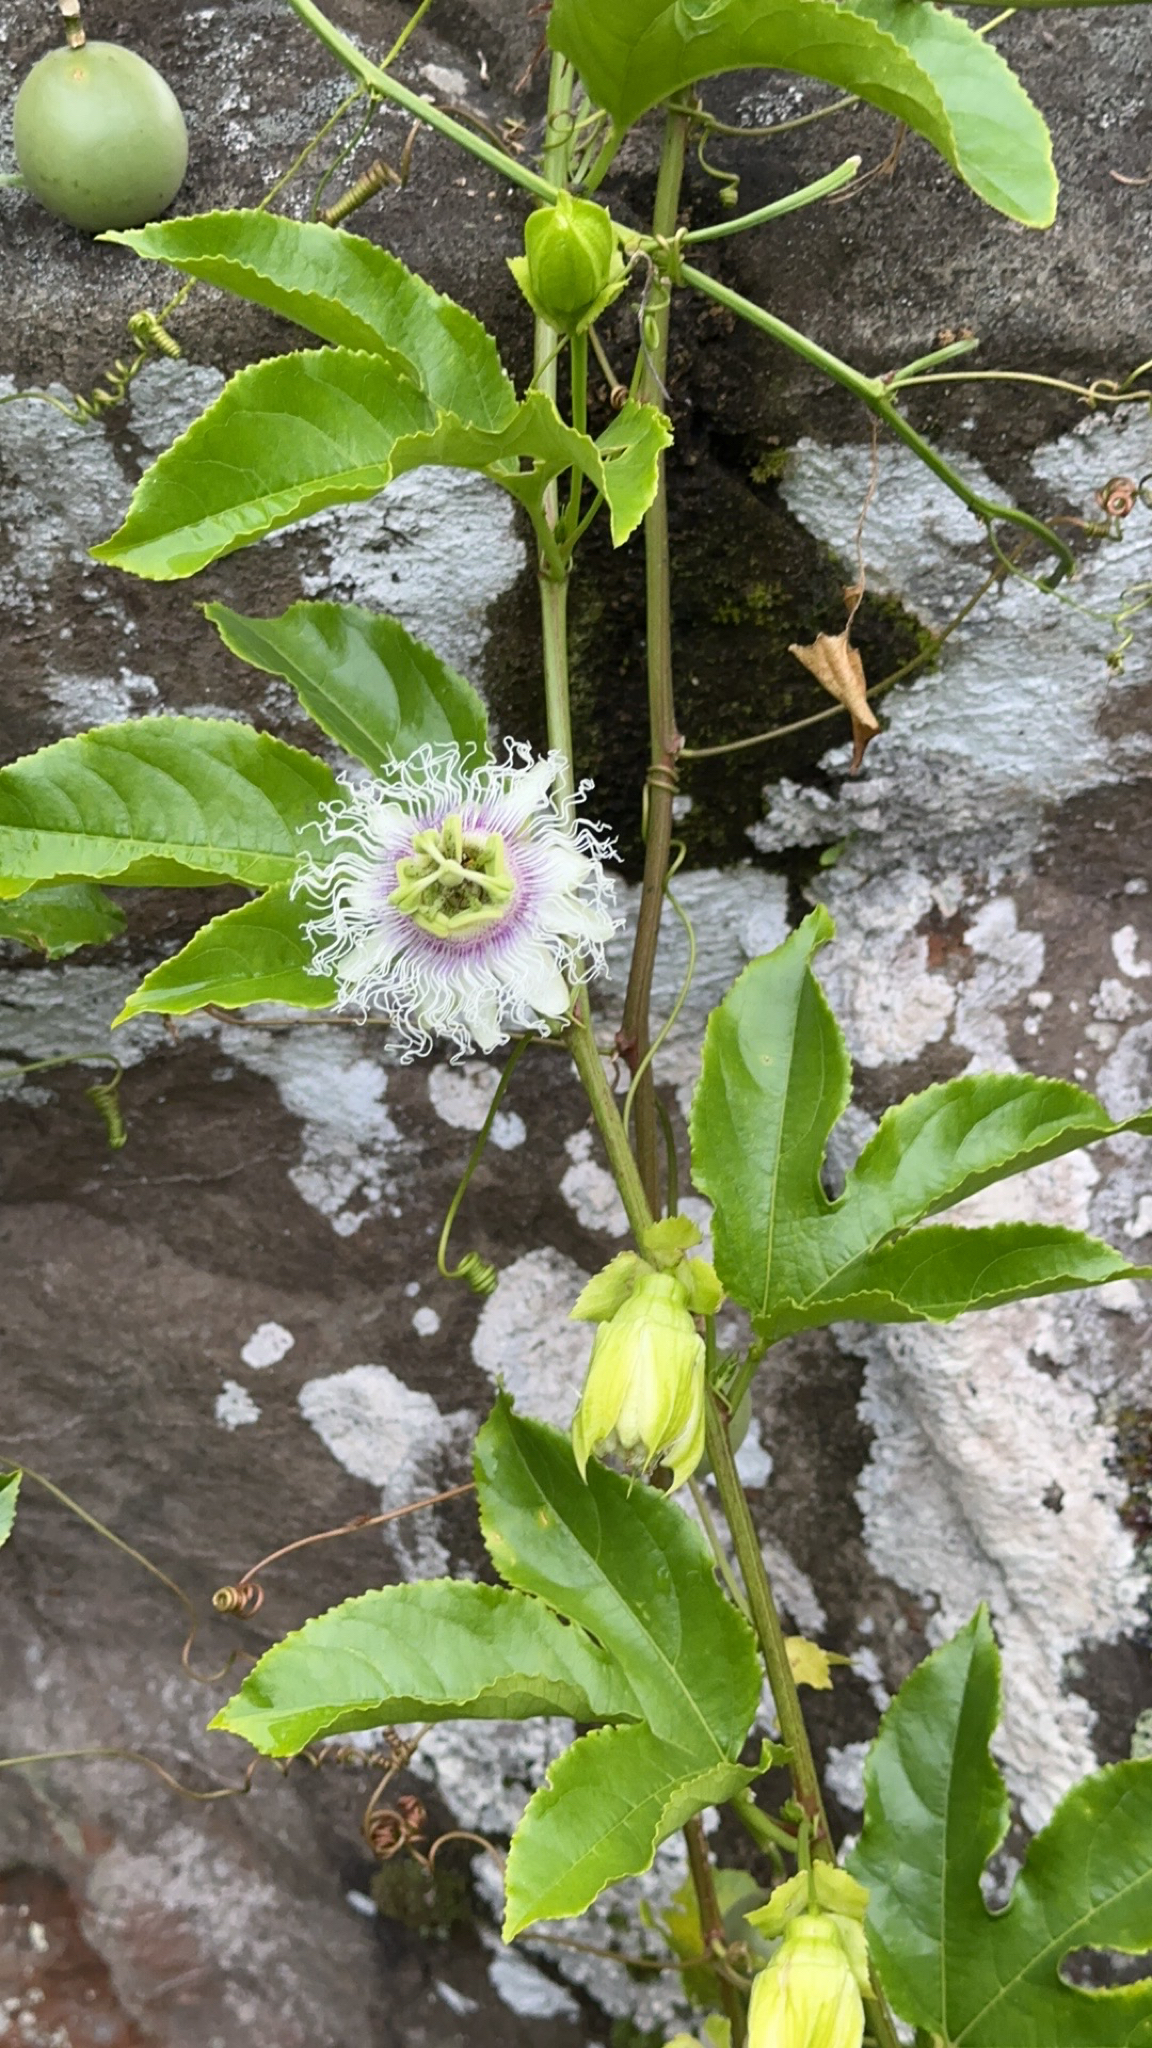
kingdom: Plantae
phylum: Tracheophyta
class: Magnoliopsida
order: Malpighiales
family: Passifloraceae
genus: Passiflora
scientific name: Passiflora edulis
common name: Purple granadilla
